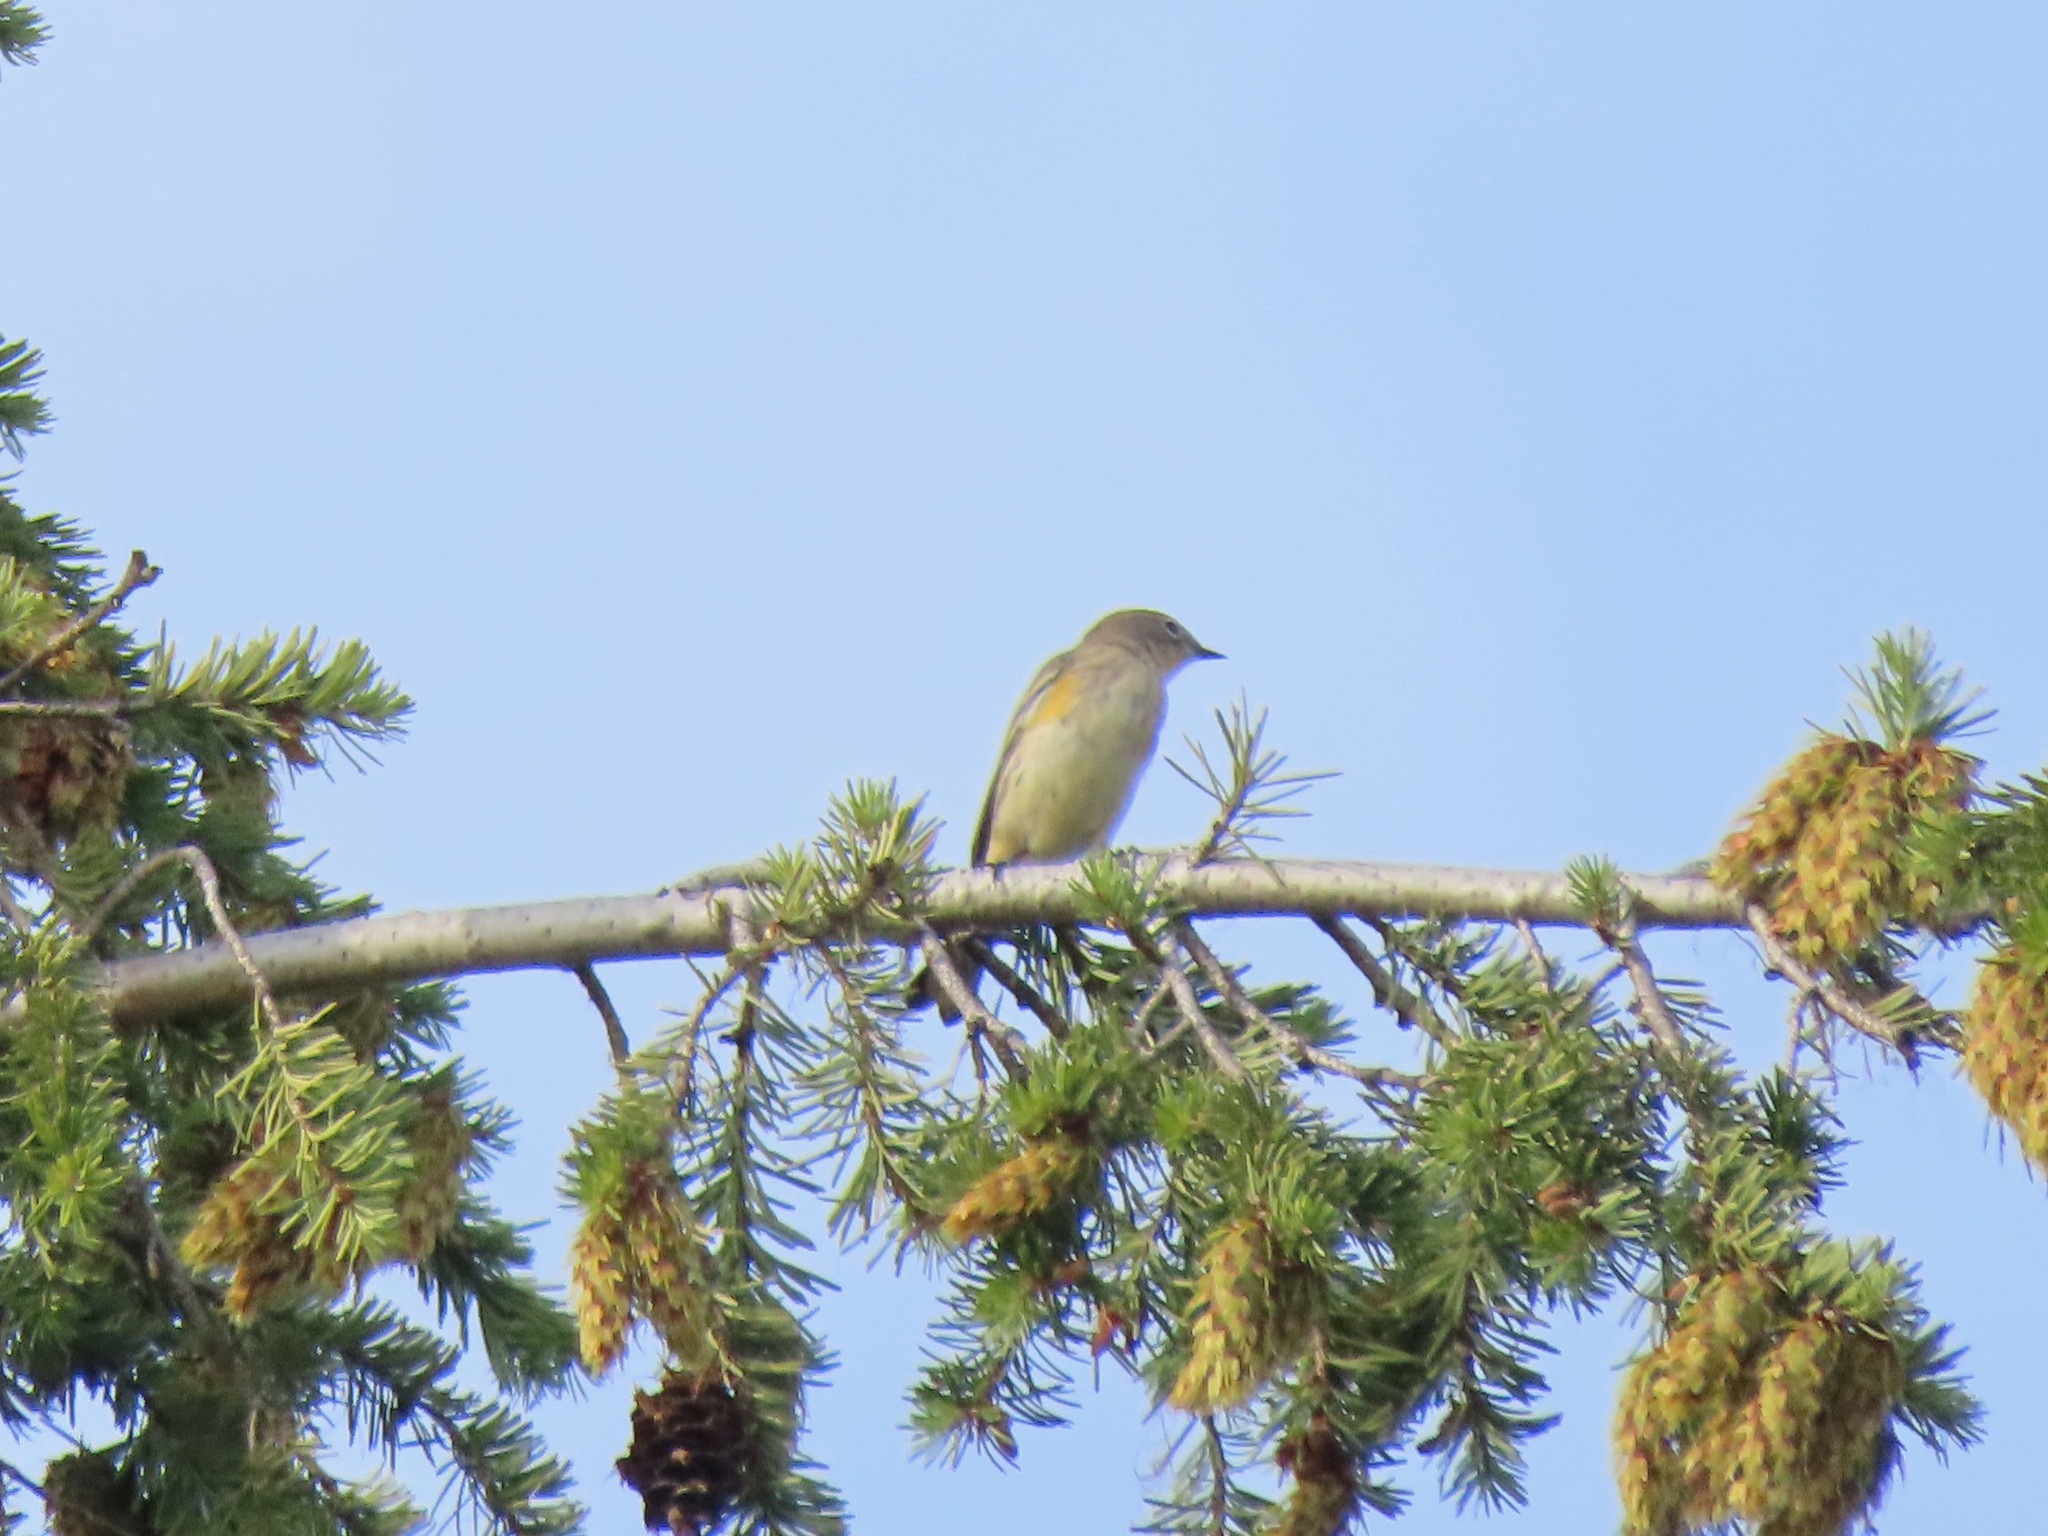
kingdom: Animalia
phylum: Chordata
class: Aves
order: Passeriformes
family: Parulidae
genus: Setophaga
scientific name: Setophaga coronata
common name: Myrtle warbler
